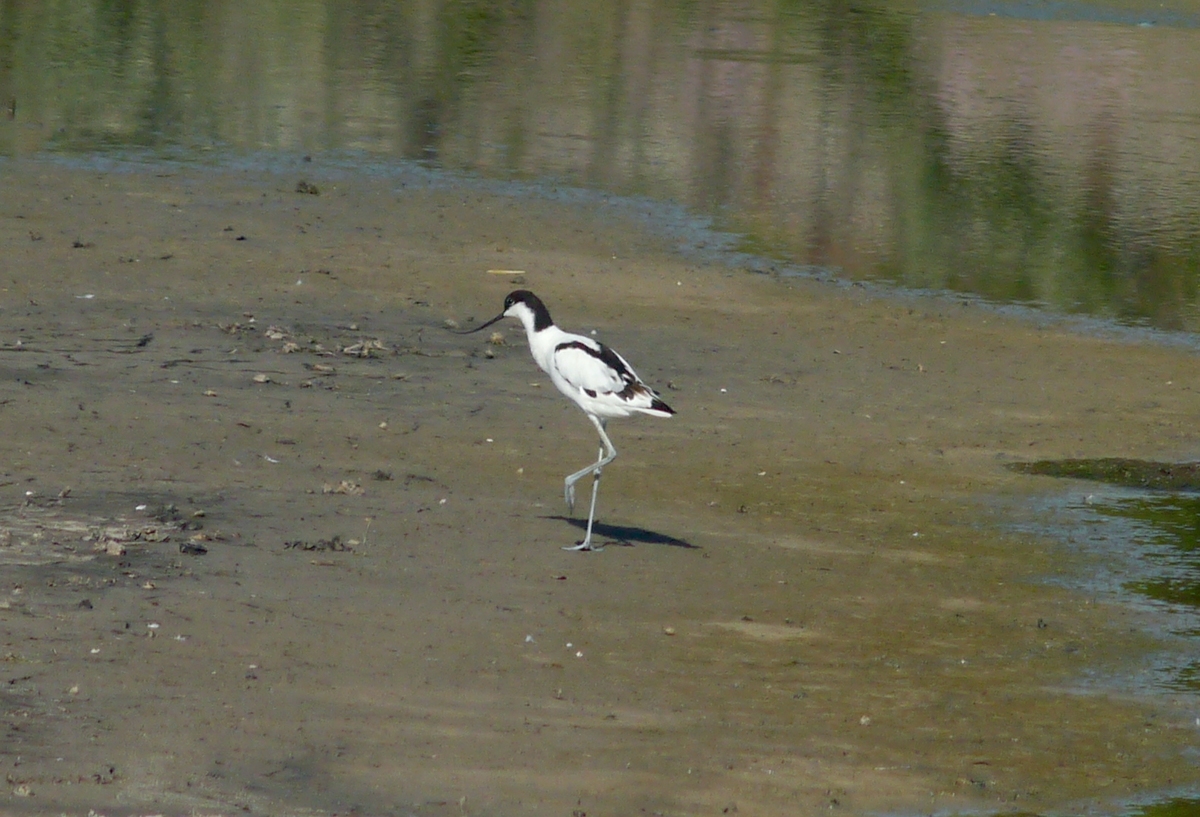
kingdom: Animalia
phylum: Chordata
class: Aves
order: Charadriiformes
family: Recurvirostridae
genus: Recurvirostra
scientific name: Recurvirostra avosetta
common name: Pied avocet
